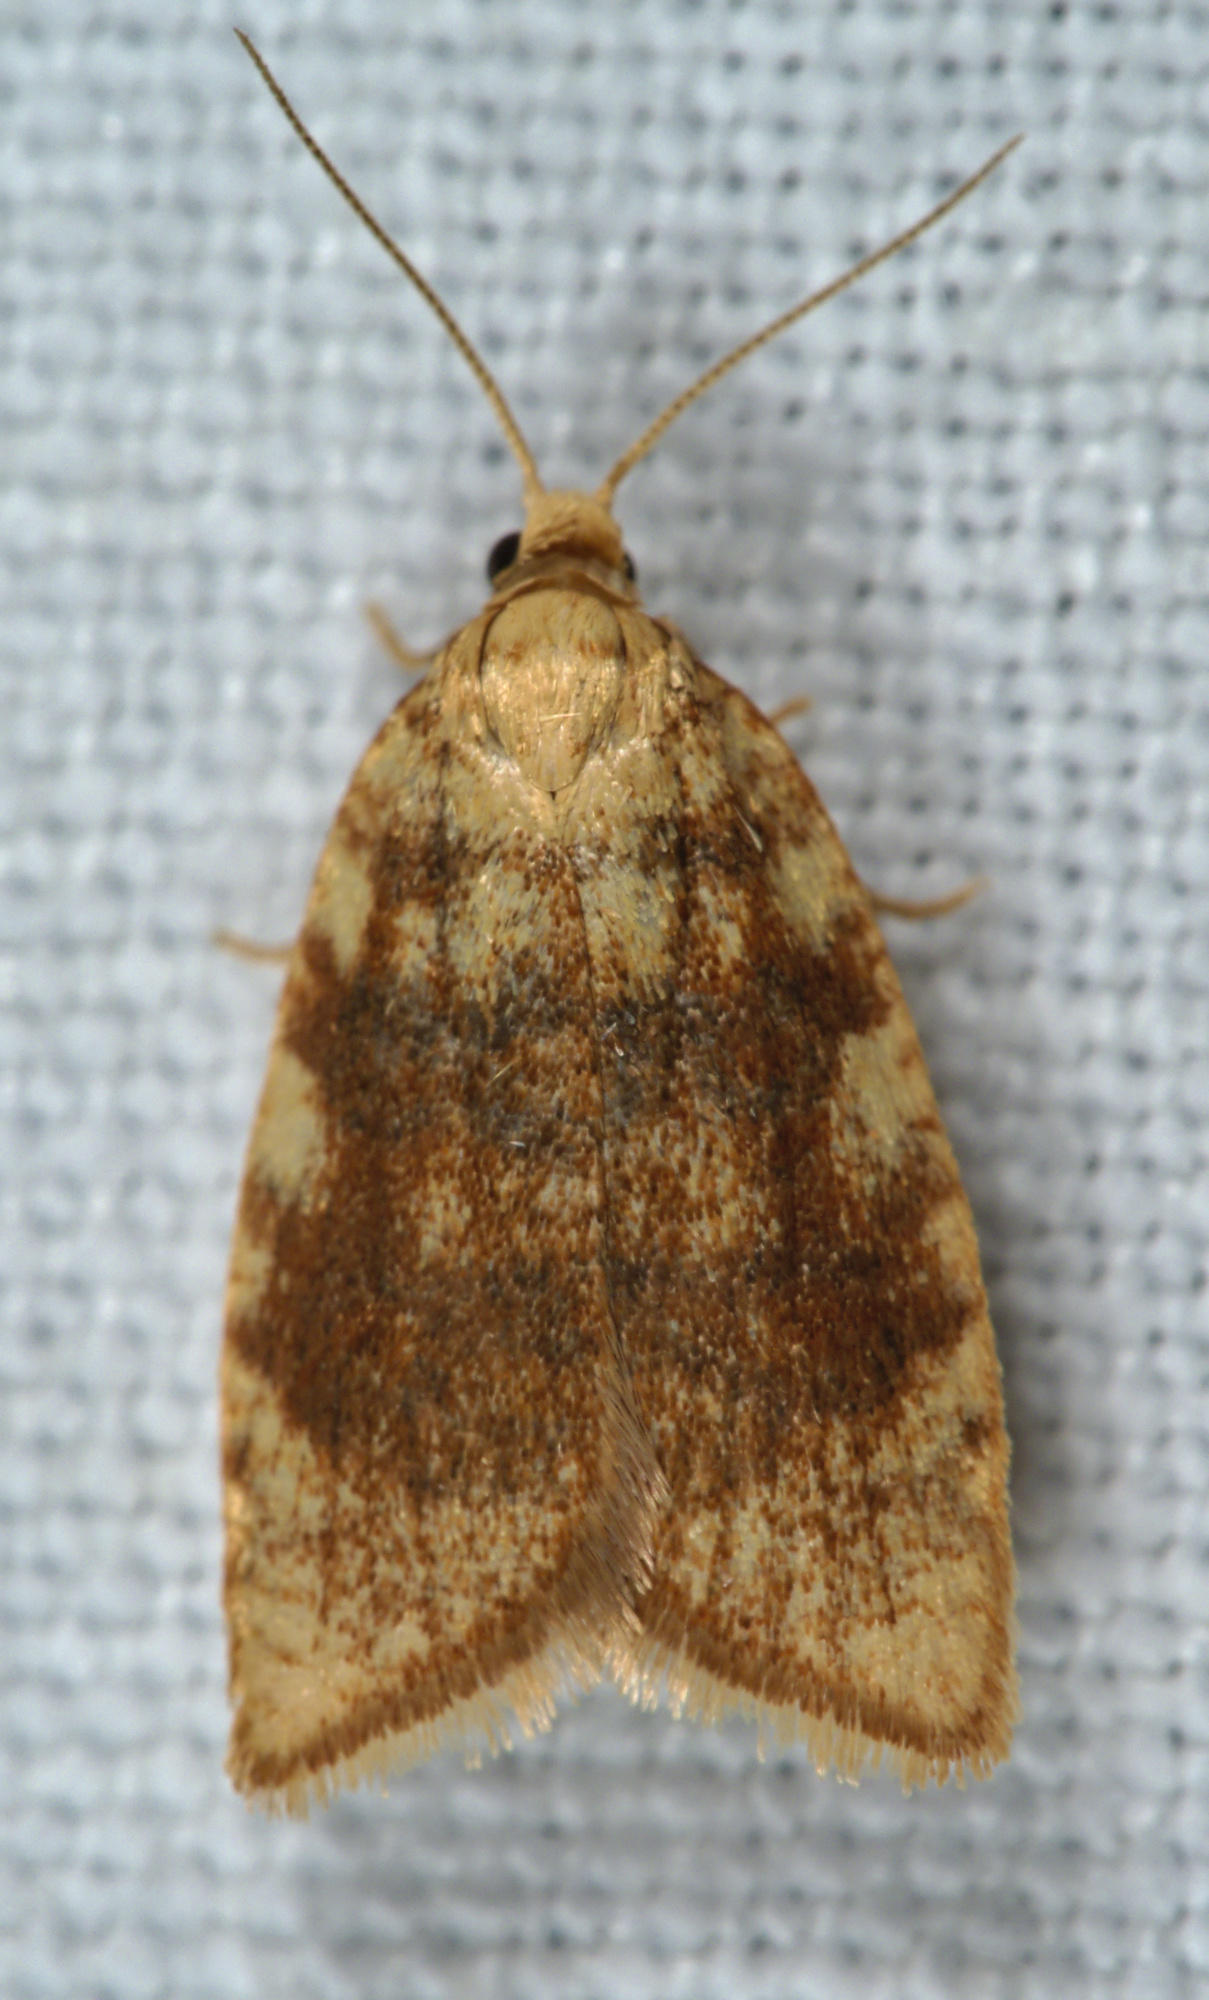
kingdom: Animalia
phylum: Arthropoda
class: Insecta
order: Lepidoptera
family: Tortricidae
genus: Aleimma
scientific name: Aleimma loeflingiana
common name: Yellow oak button
